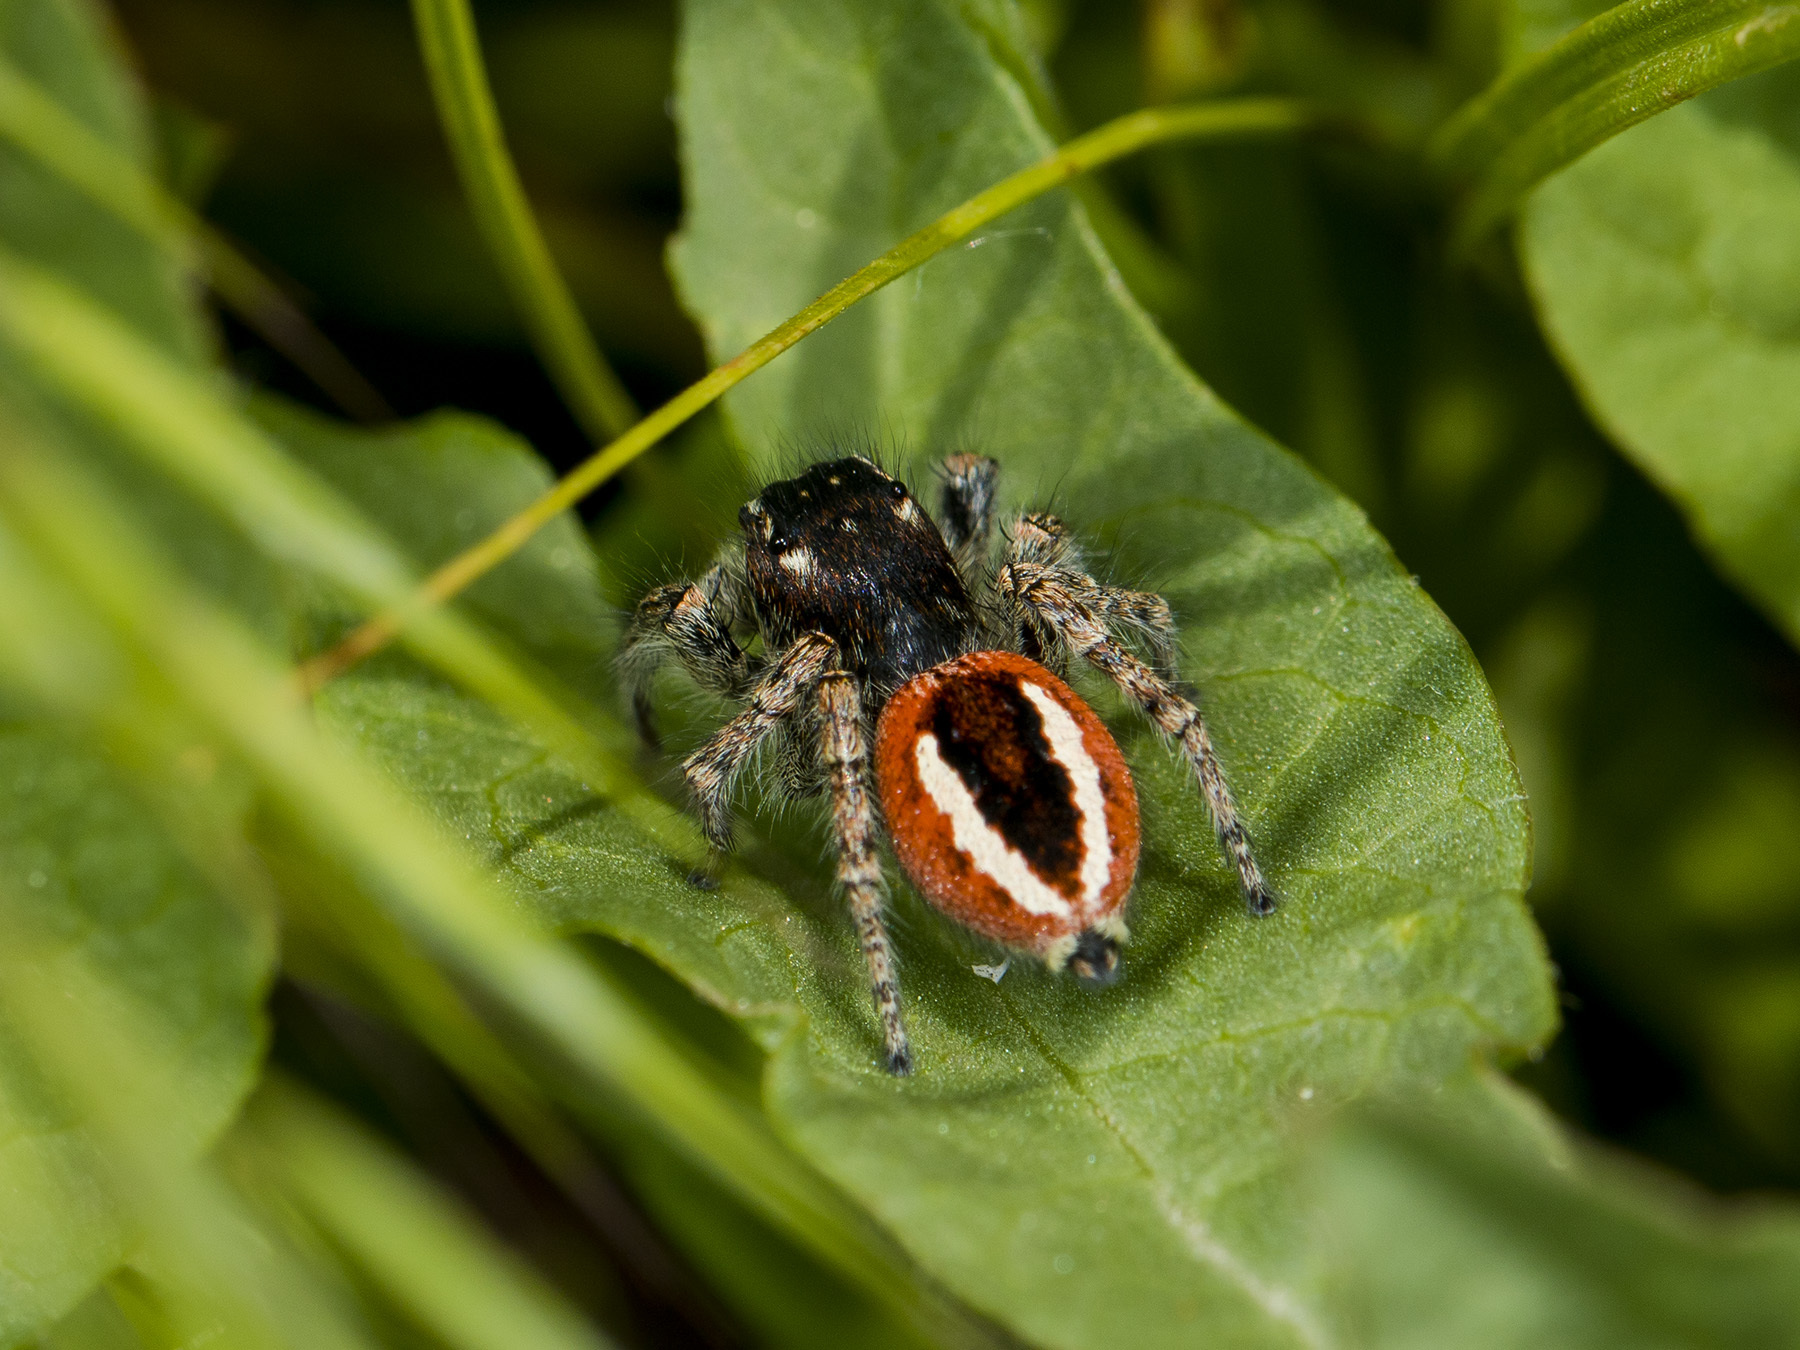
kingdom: Animalia
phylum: Arthropoda
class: Arachnida
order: Araneae
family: Salticidae
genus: Philaeus
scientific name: Philaeus chrysops
